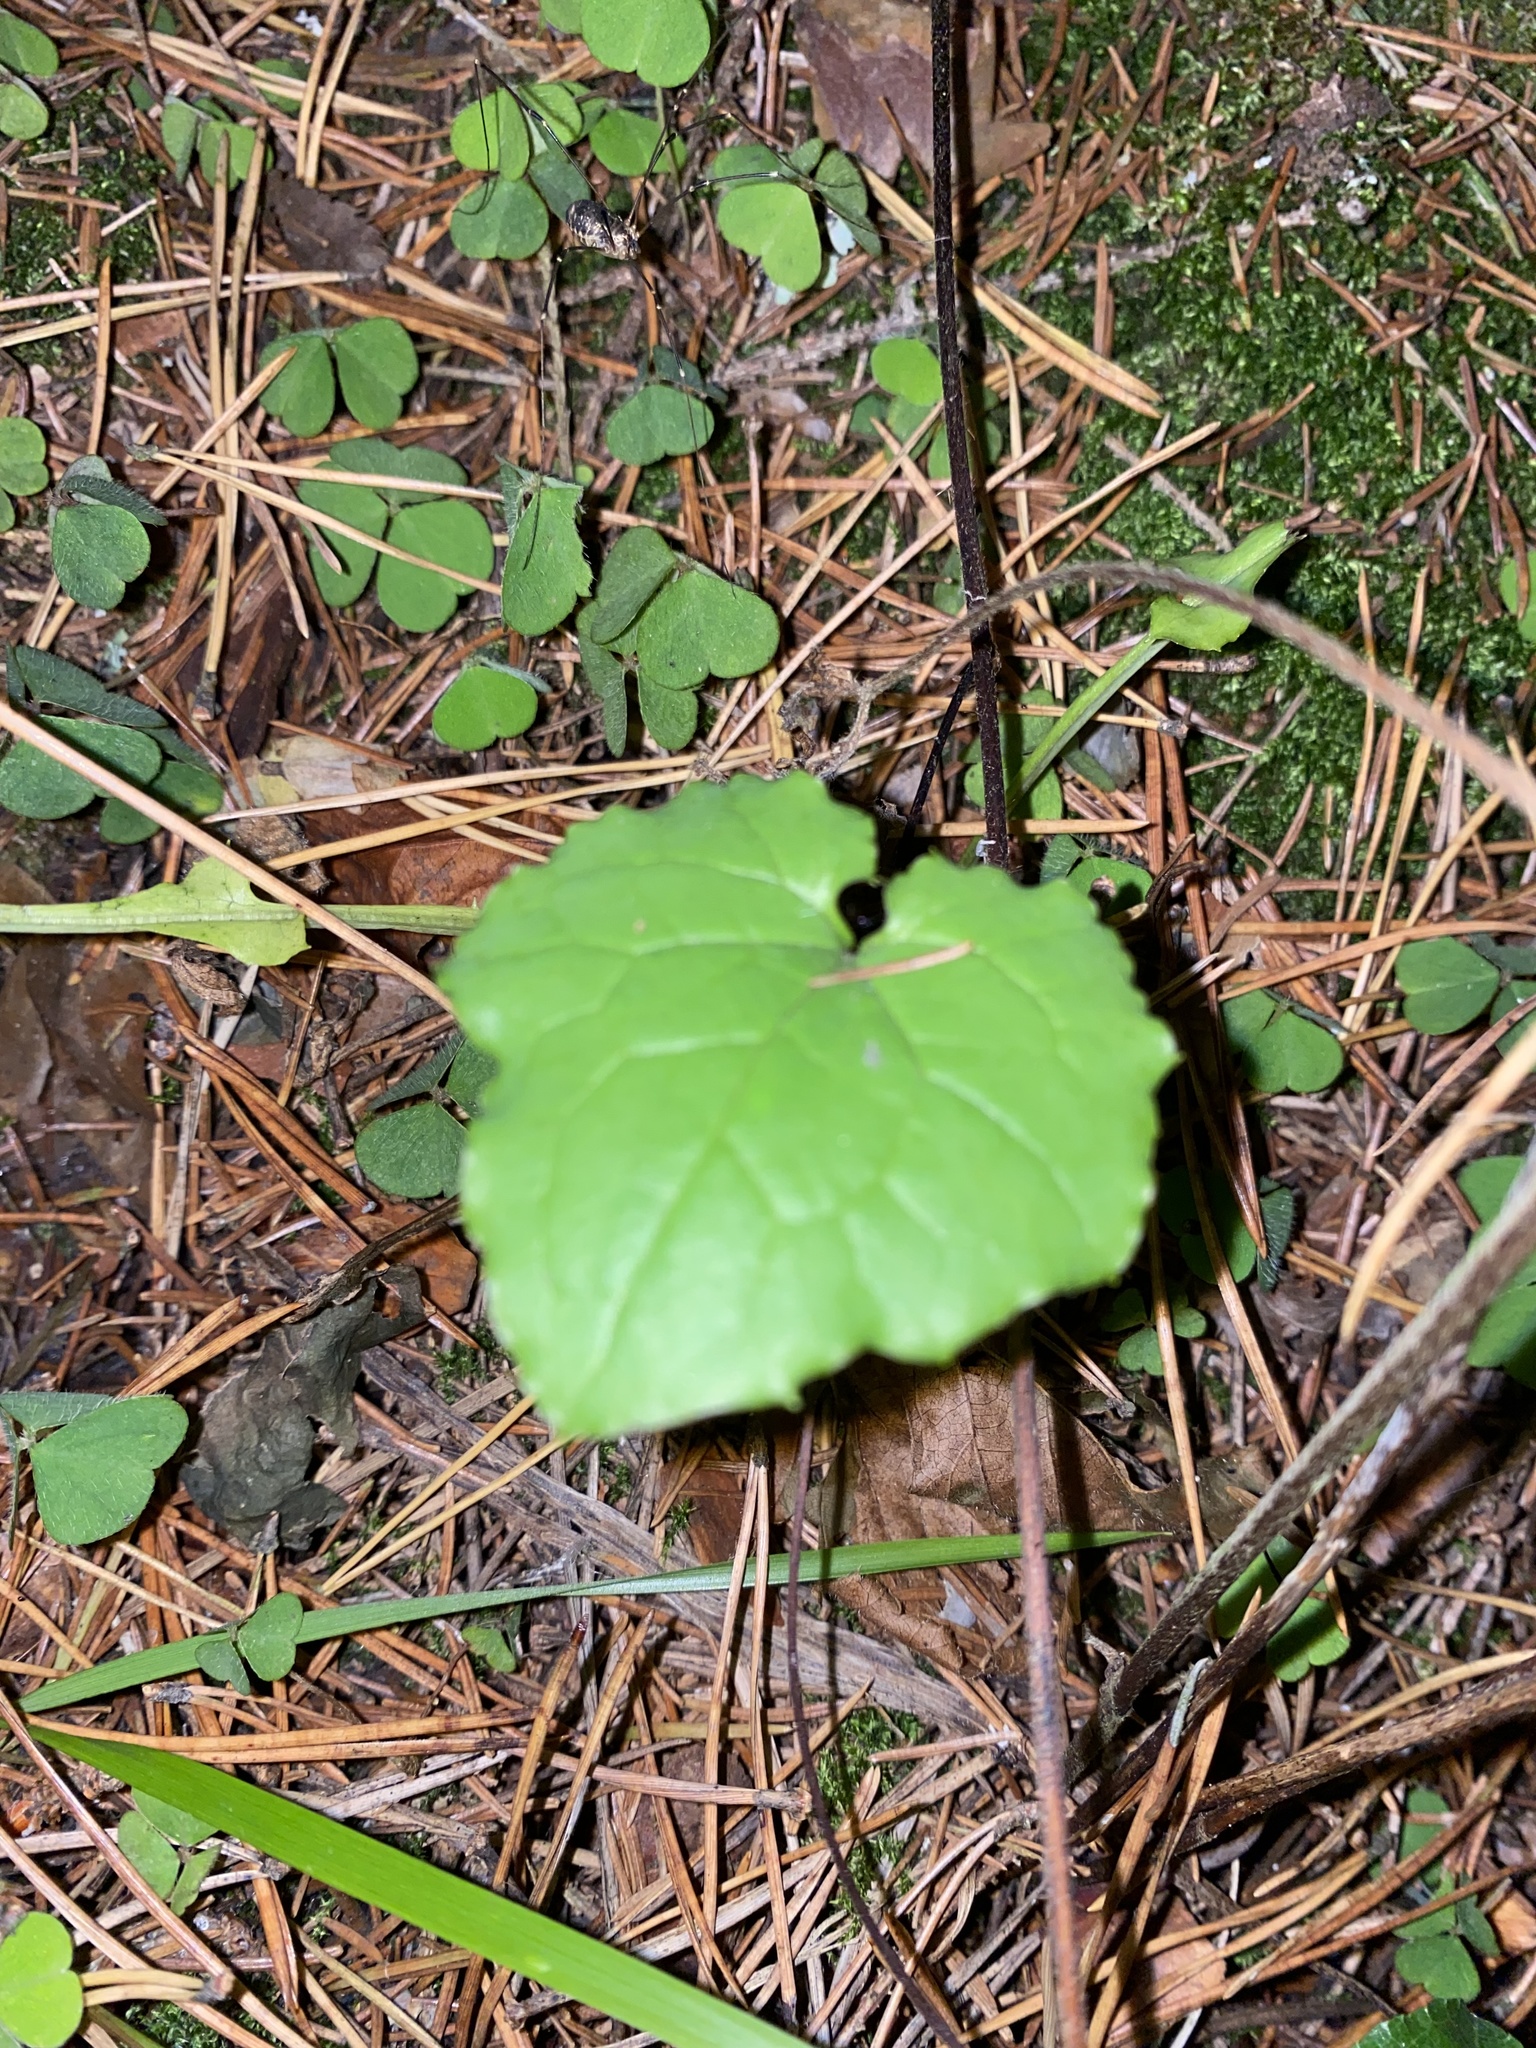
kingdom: Plantae
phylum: Tracheophyta
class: Magnoliopsida
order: Asterales
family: Asteraceae
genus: Mycelis
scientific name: Mycelis muralis
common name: Wall lettuce
